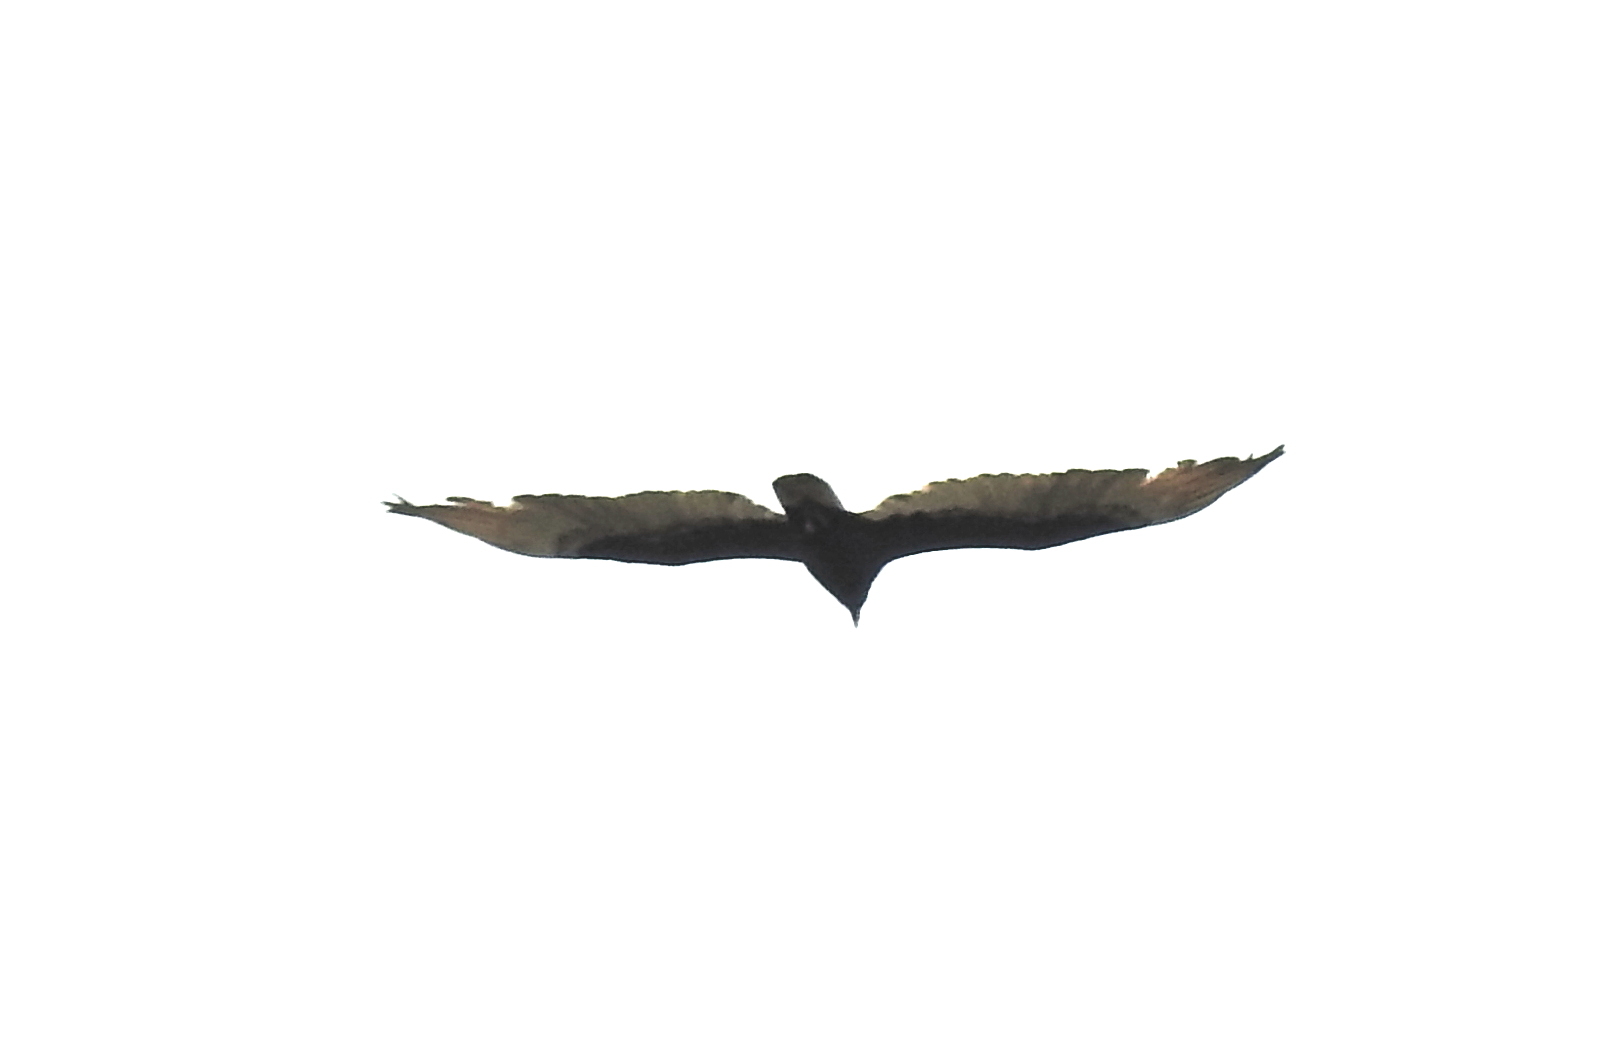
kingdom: Animalia
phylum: Chordata
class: Aves
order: Accipitriformes
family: Cathartidae
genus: Cathartes
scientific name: Cathartes aura
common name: Turkey vulture
